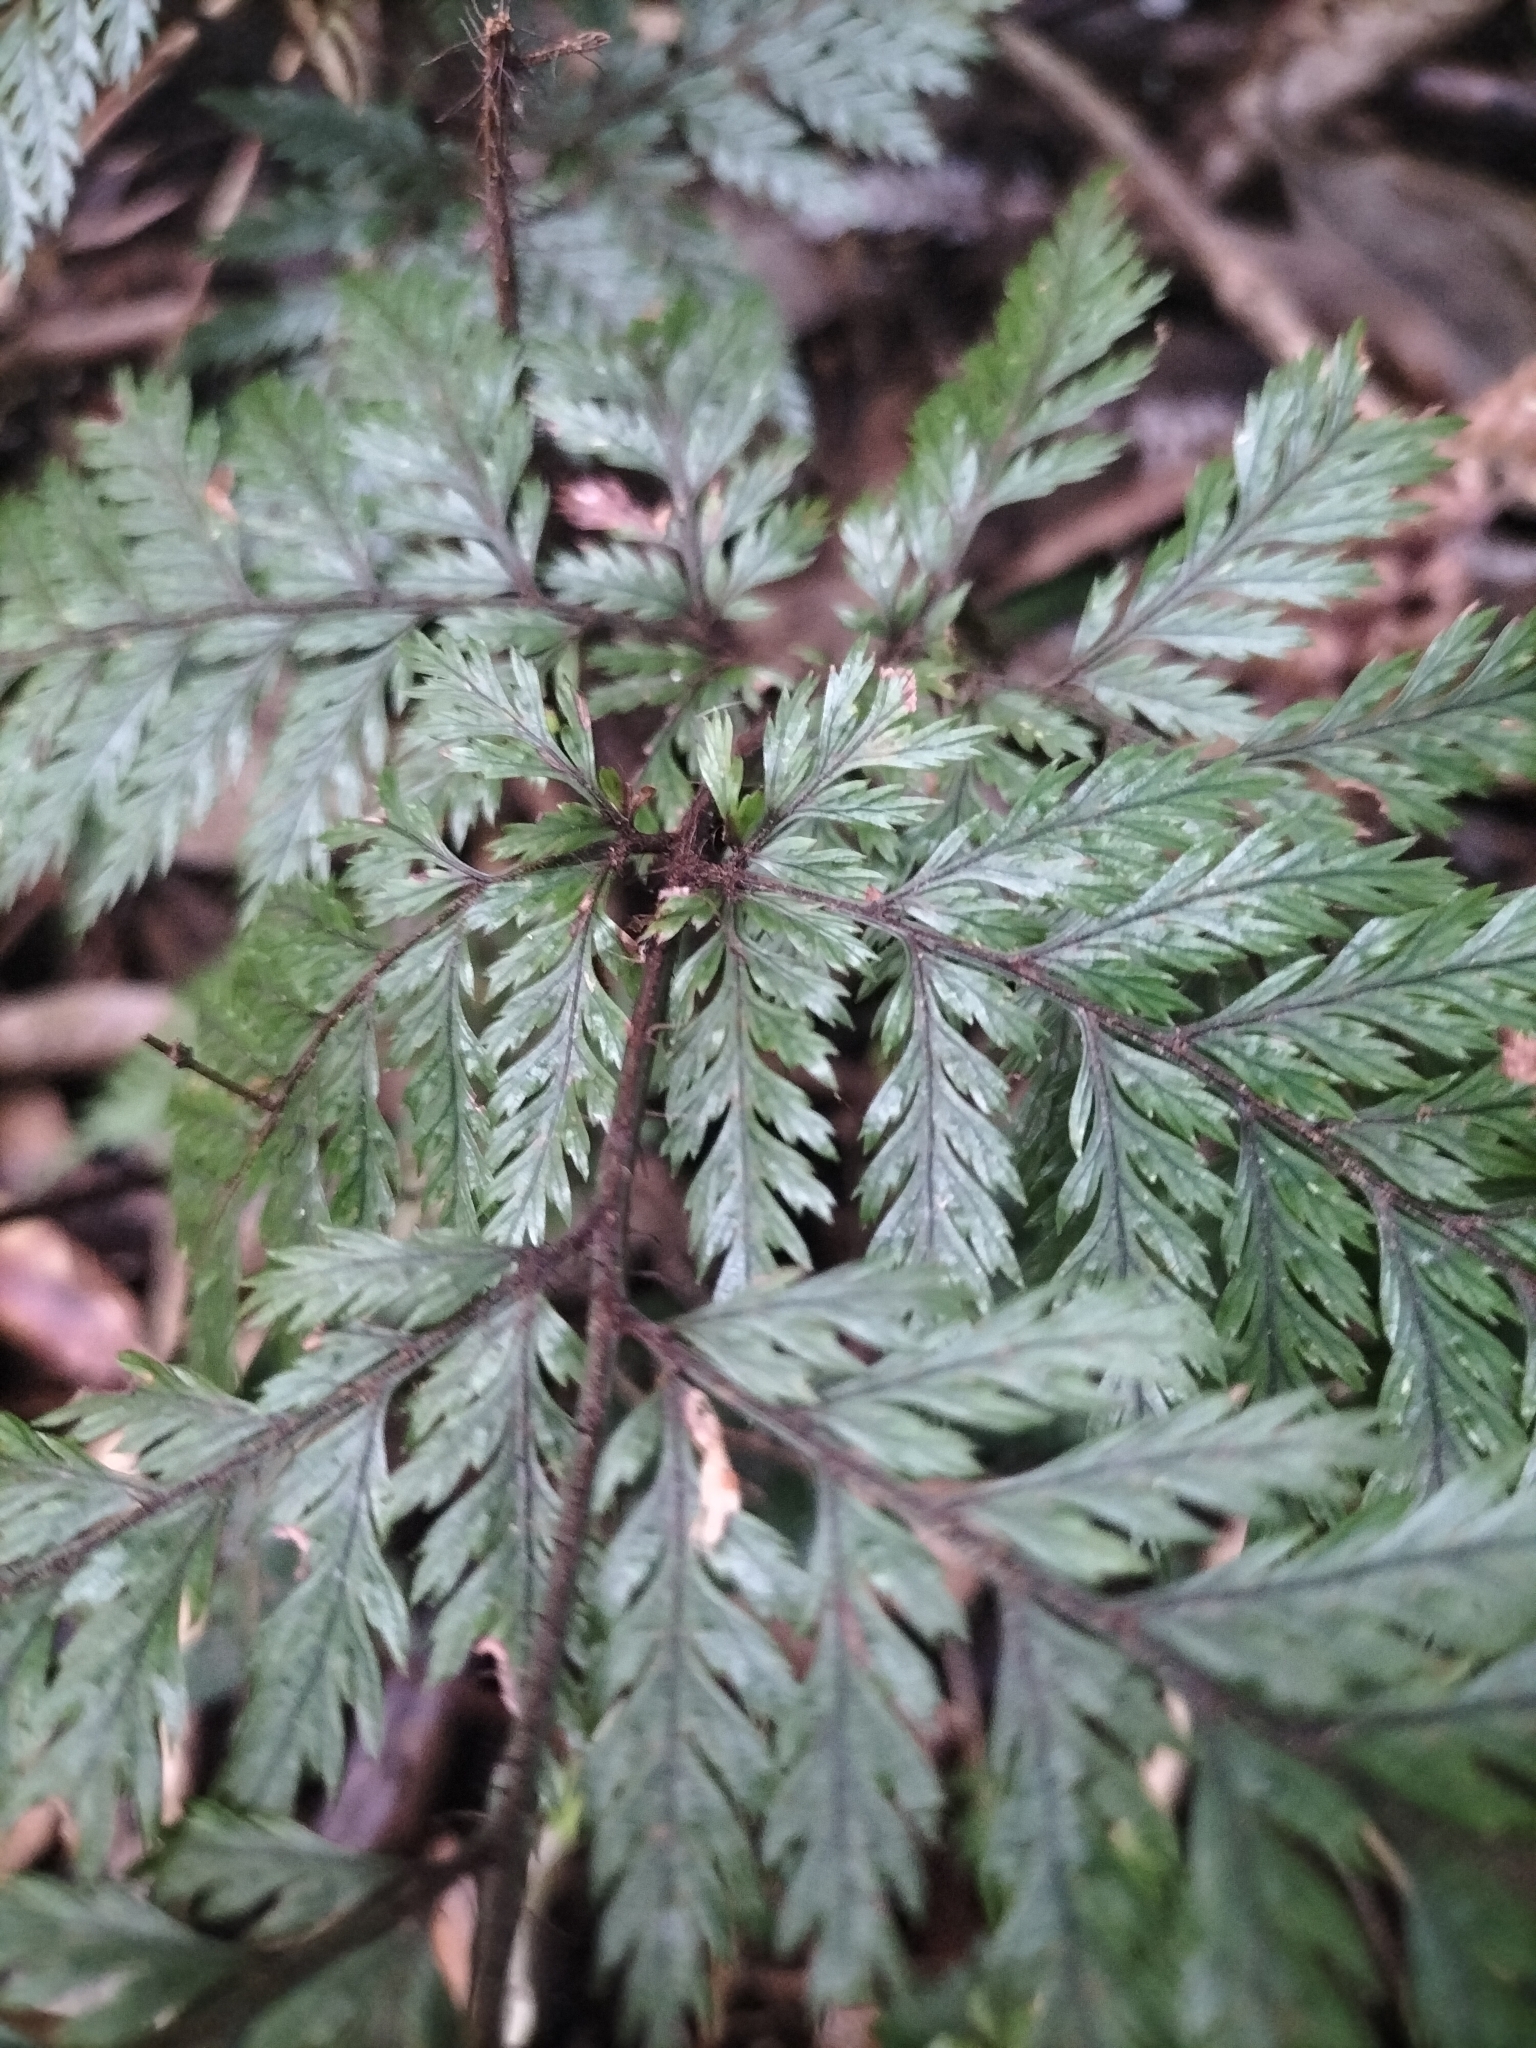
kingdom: Plantae
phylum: Tracheophyta
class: Polypodiopsida
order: Polypodiales
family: Dryopteridaceae
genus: Lastreopsis
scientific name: Lastreopsis hispida
